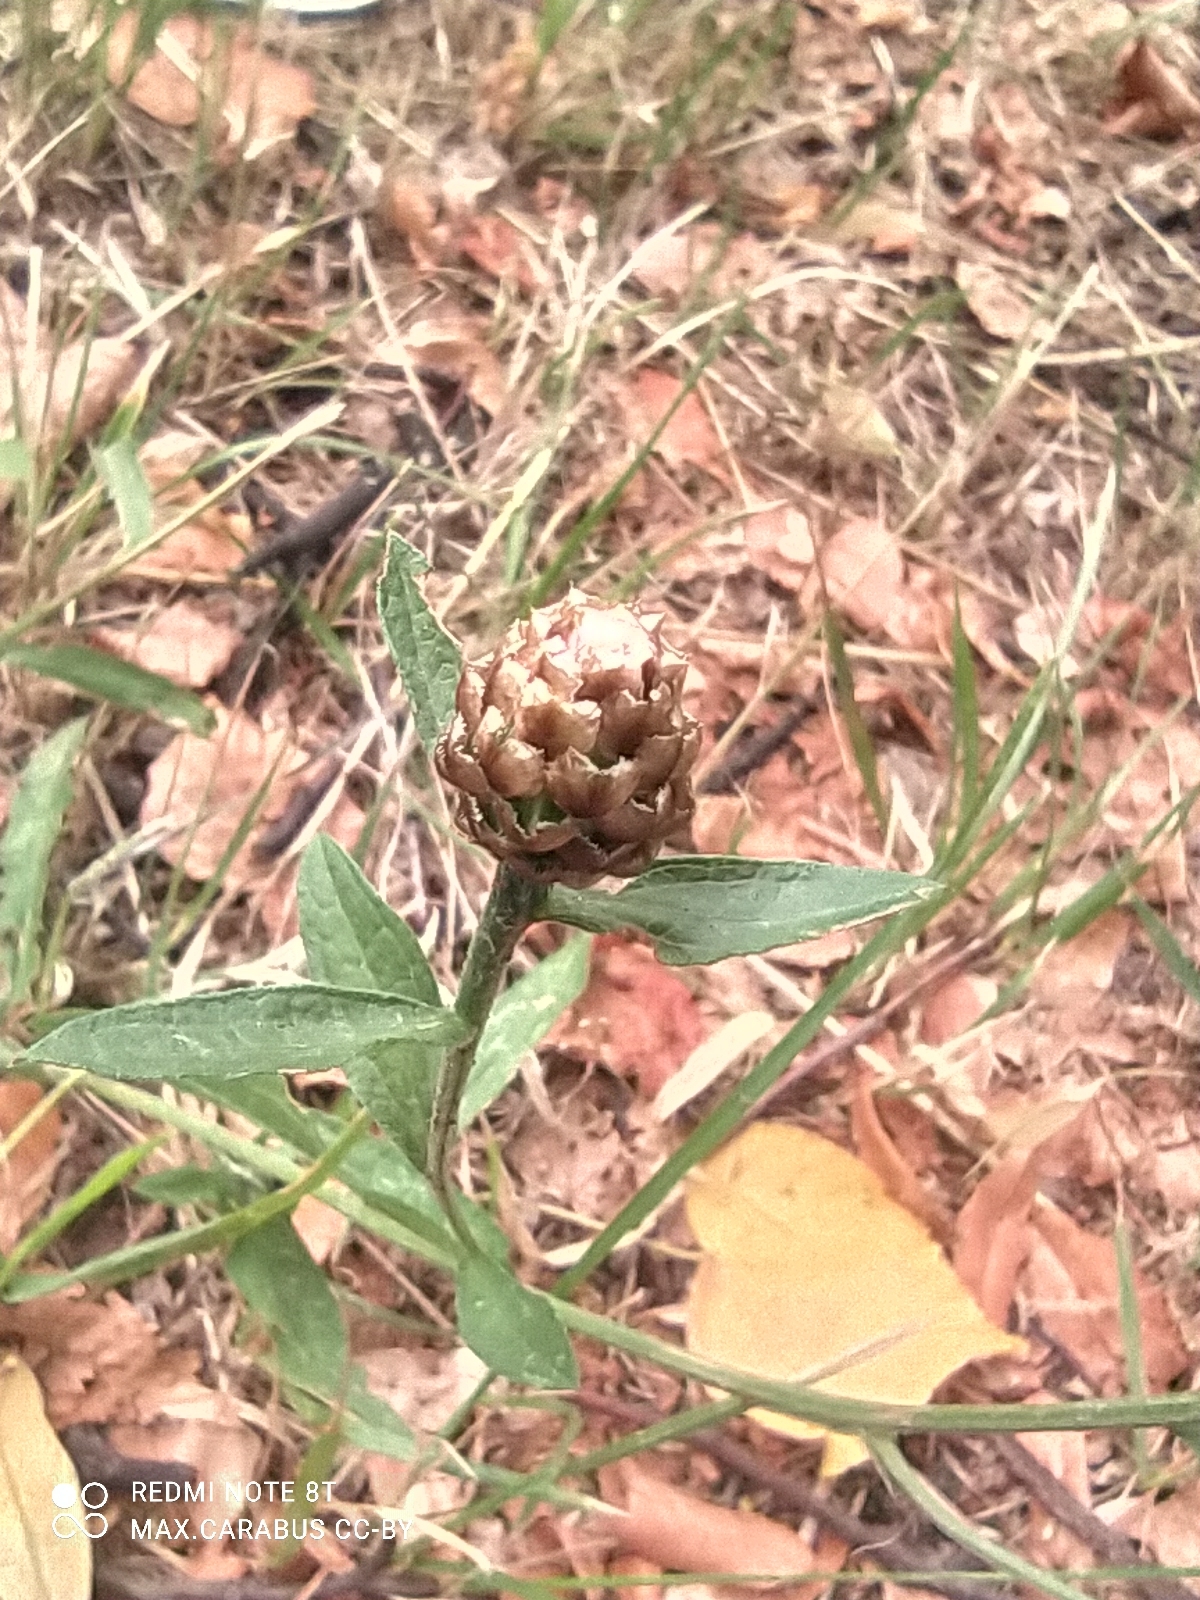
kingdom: Plantae
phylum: Tracheophyta
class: Magnoliopsida
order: Asterales
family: Asteraceae
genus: Centaurea
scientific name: Centaurea jacea
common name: Brown knapweed
